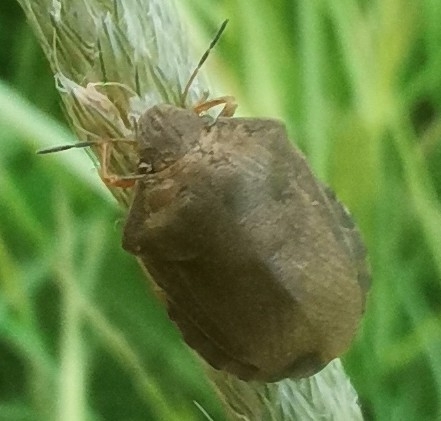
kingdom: Animalia
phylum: Arthropoda
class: Insecta
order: Hemiptera
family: Scutelleridae
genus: Eurygaster
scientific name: Eurygaster testudinaria
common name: Tortoise bug
